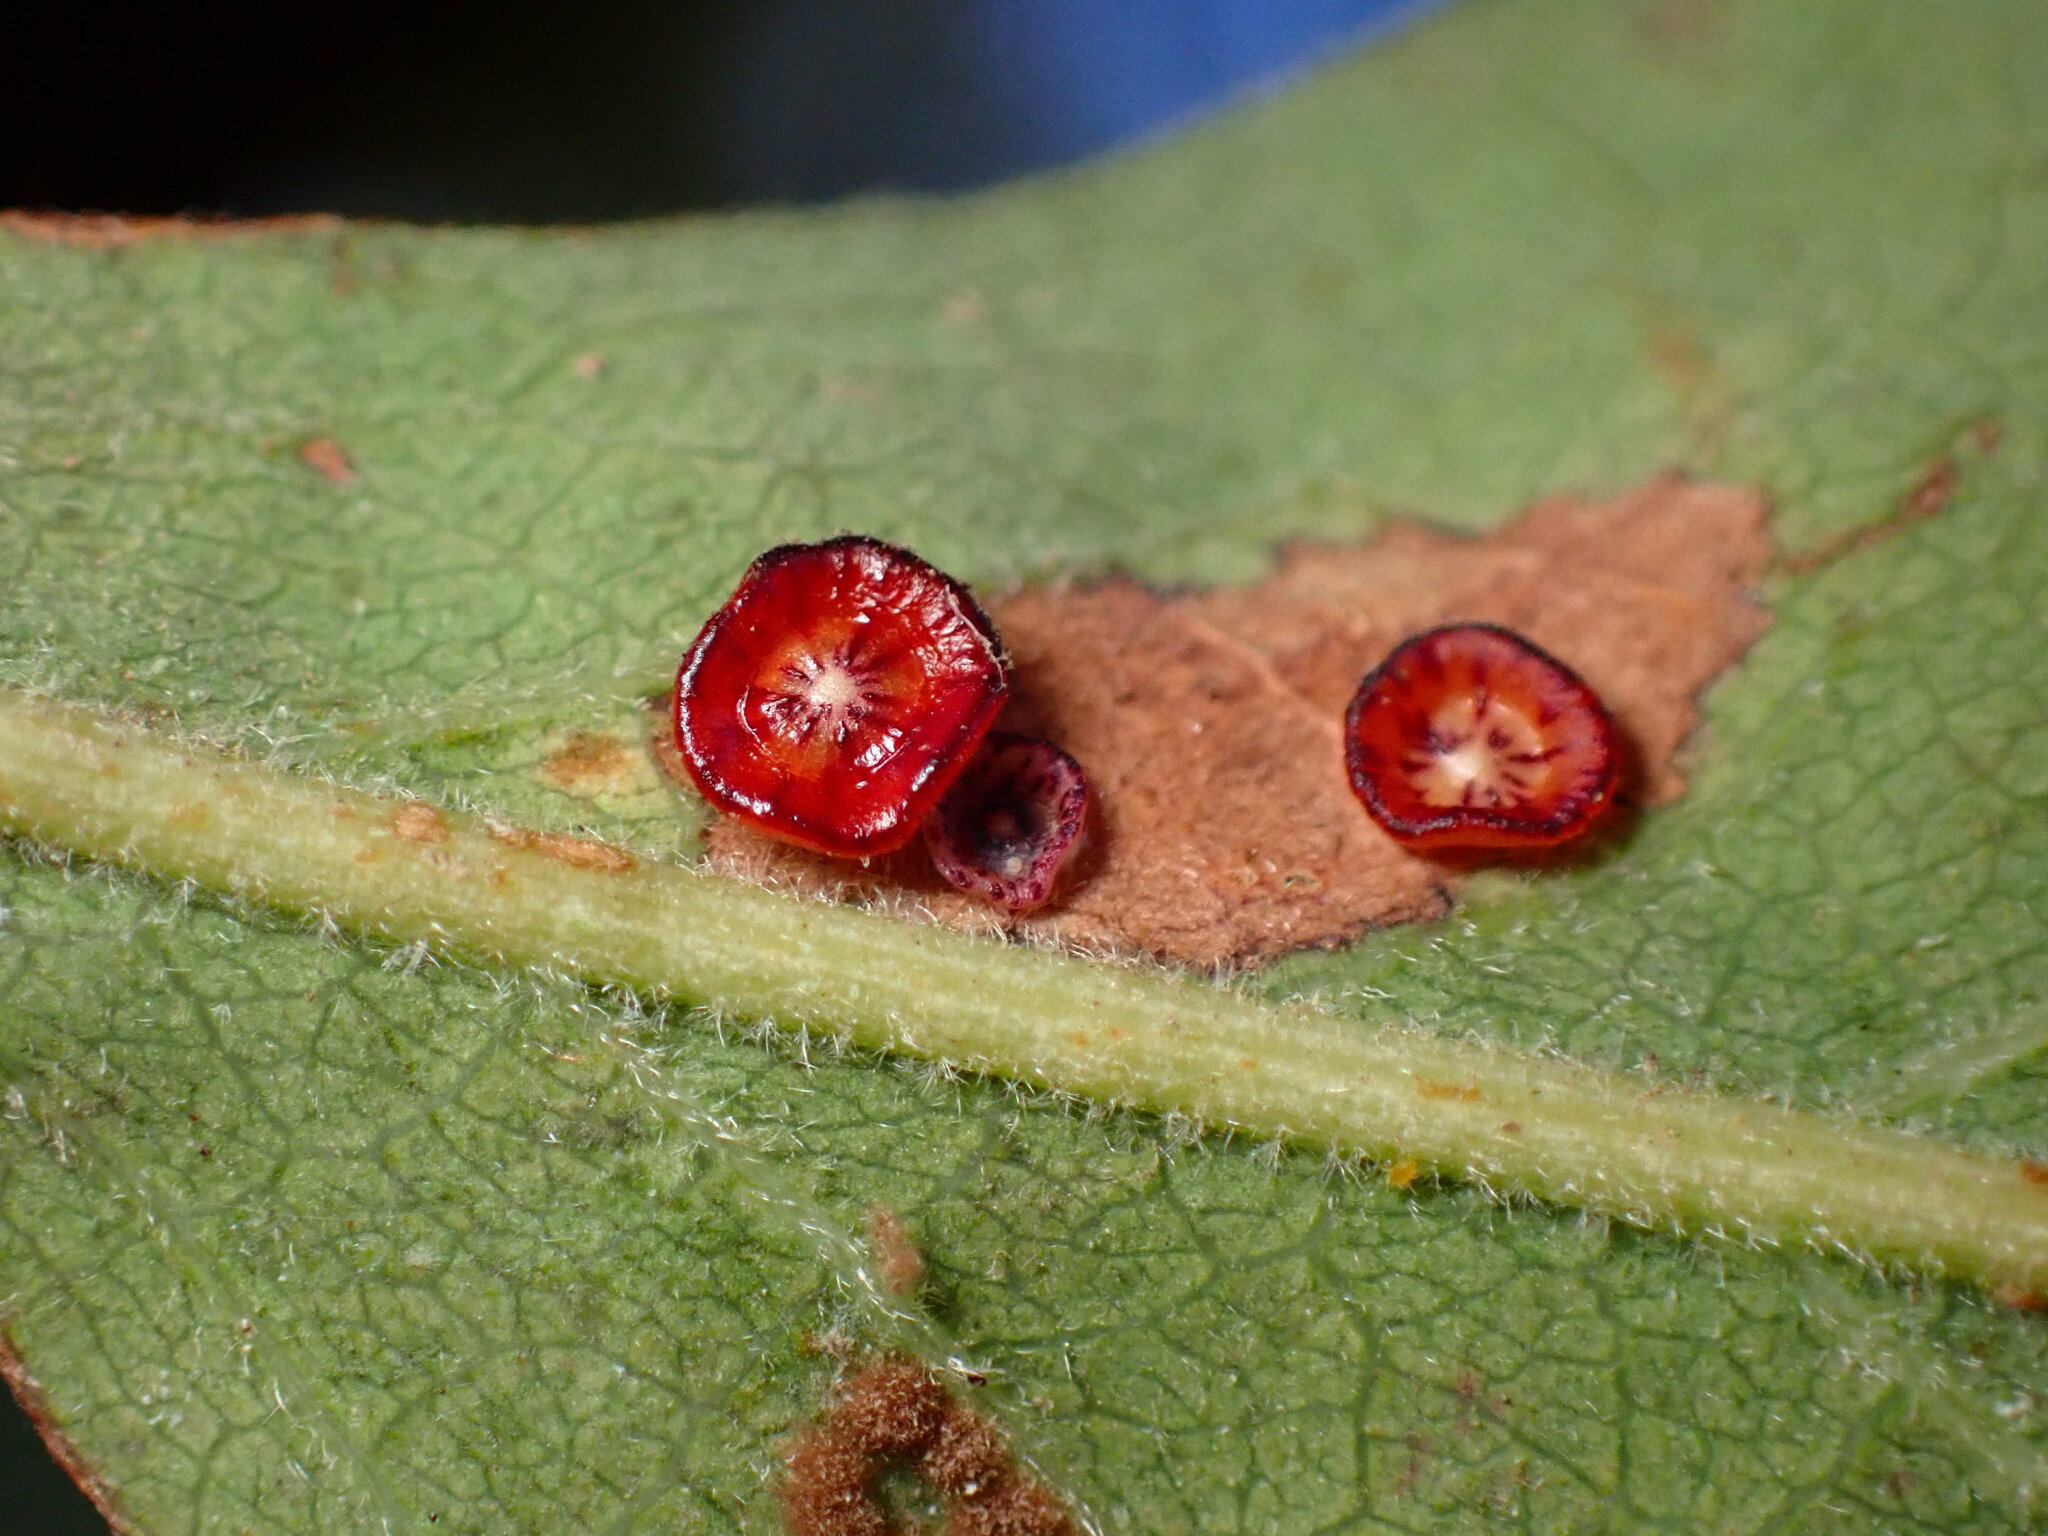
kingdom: Animalia
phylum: Arthropoda
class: Insecta
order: Hymenoptera
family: Cynipidae
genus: Andricus
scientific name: Andricus
